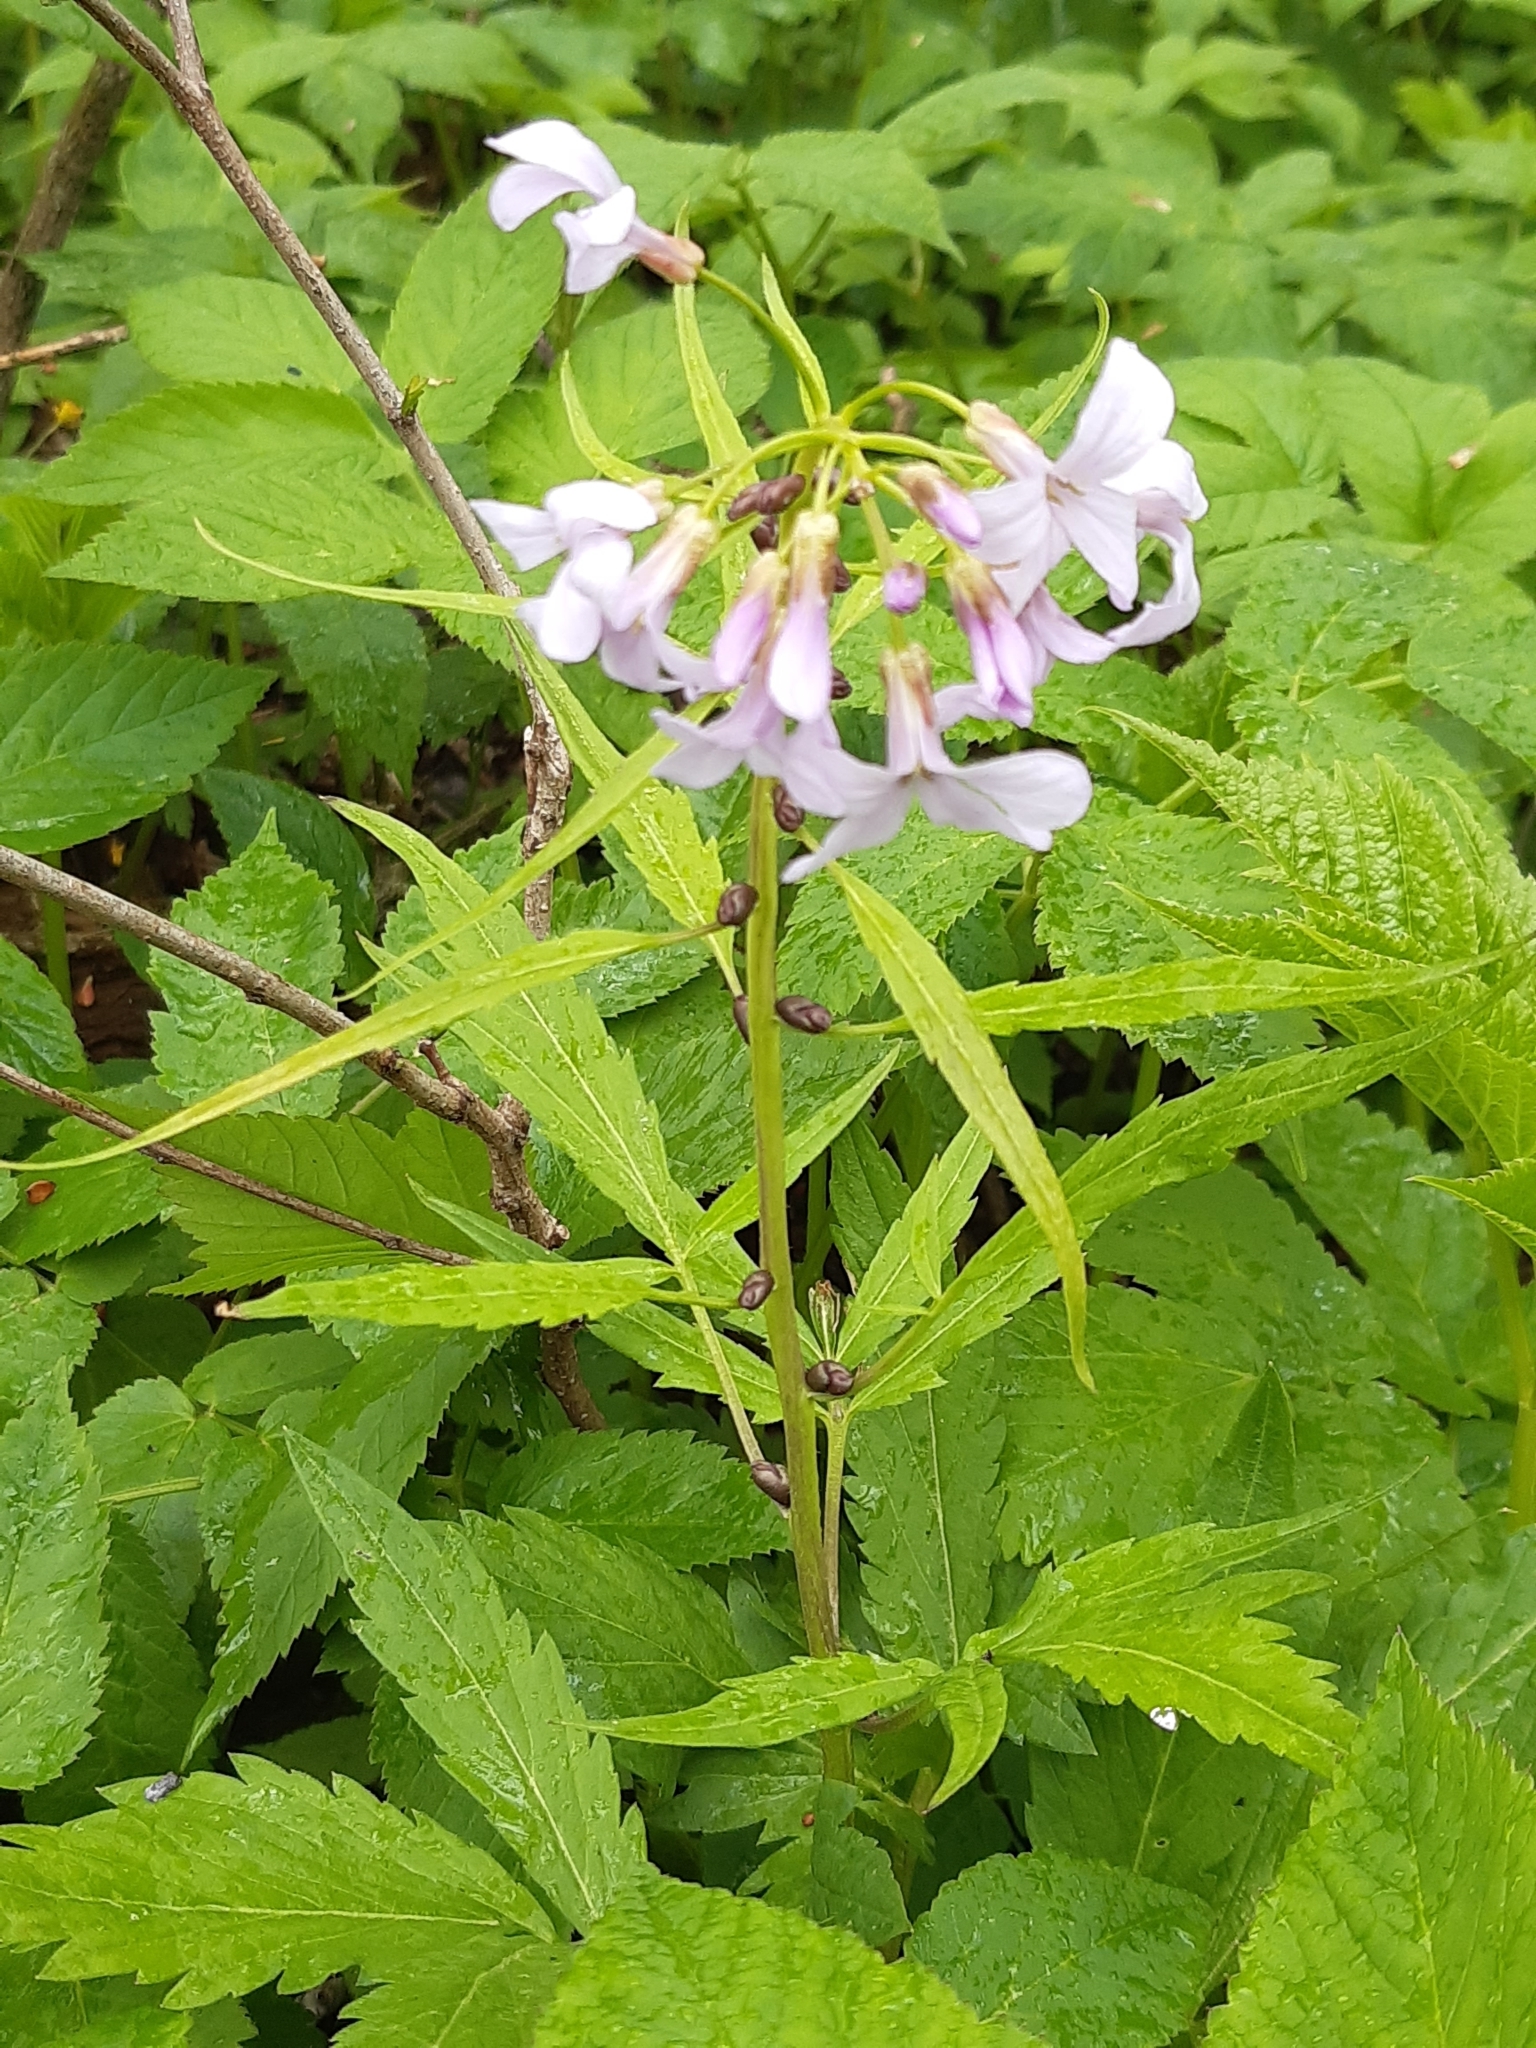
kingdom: Plantae
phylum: Tracheophyta
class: Magnoliopsida
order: Brassicales
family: Brassicaceae
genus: Cardamine
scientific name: Cardamine bulbifera
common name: Coralroot bittercress
